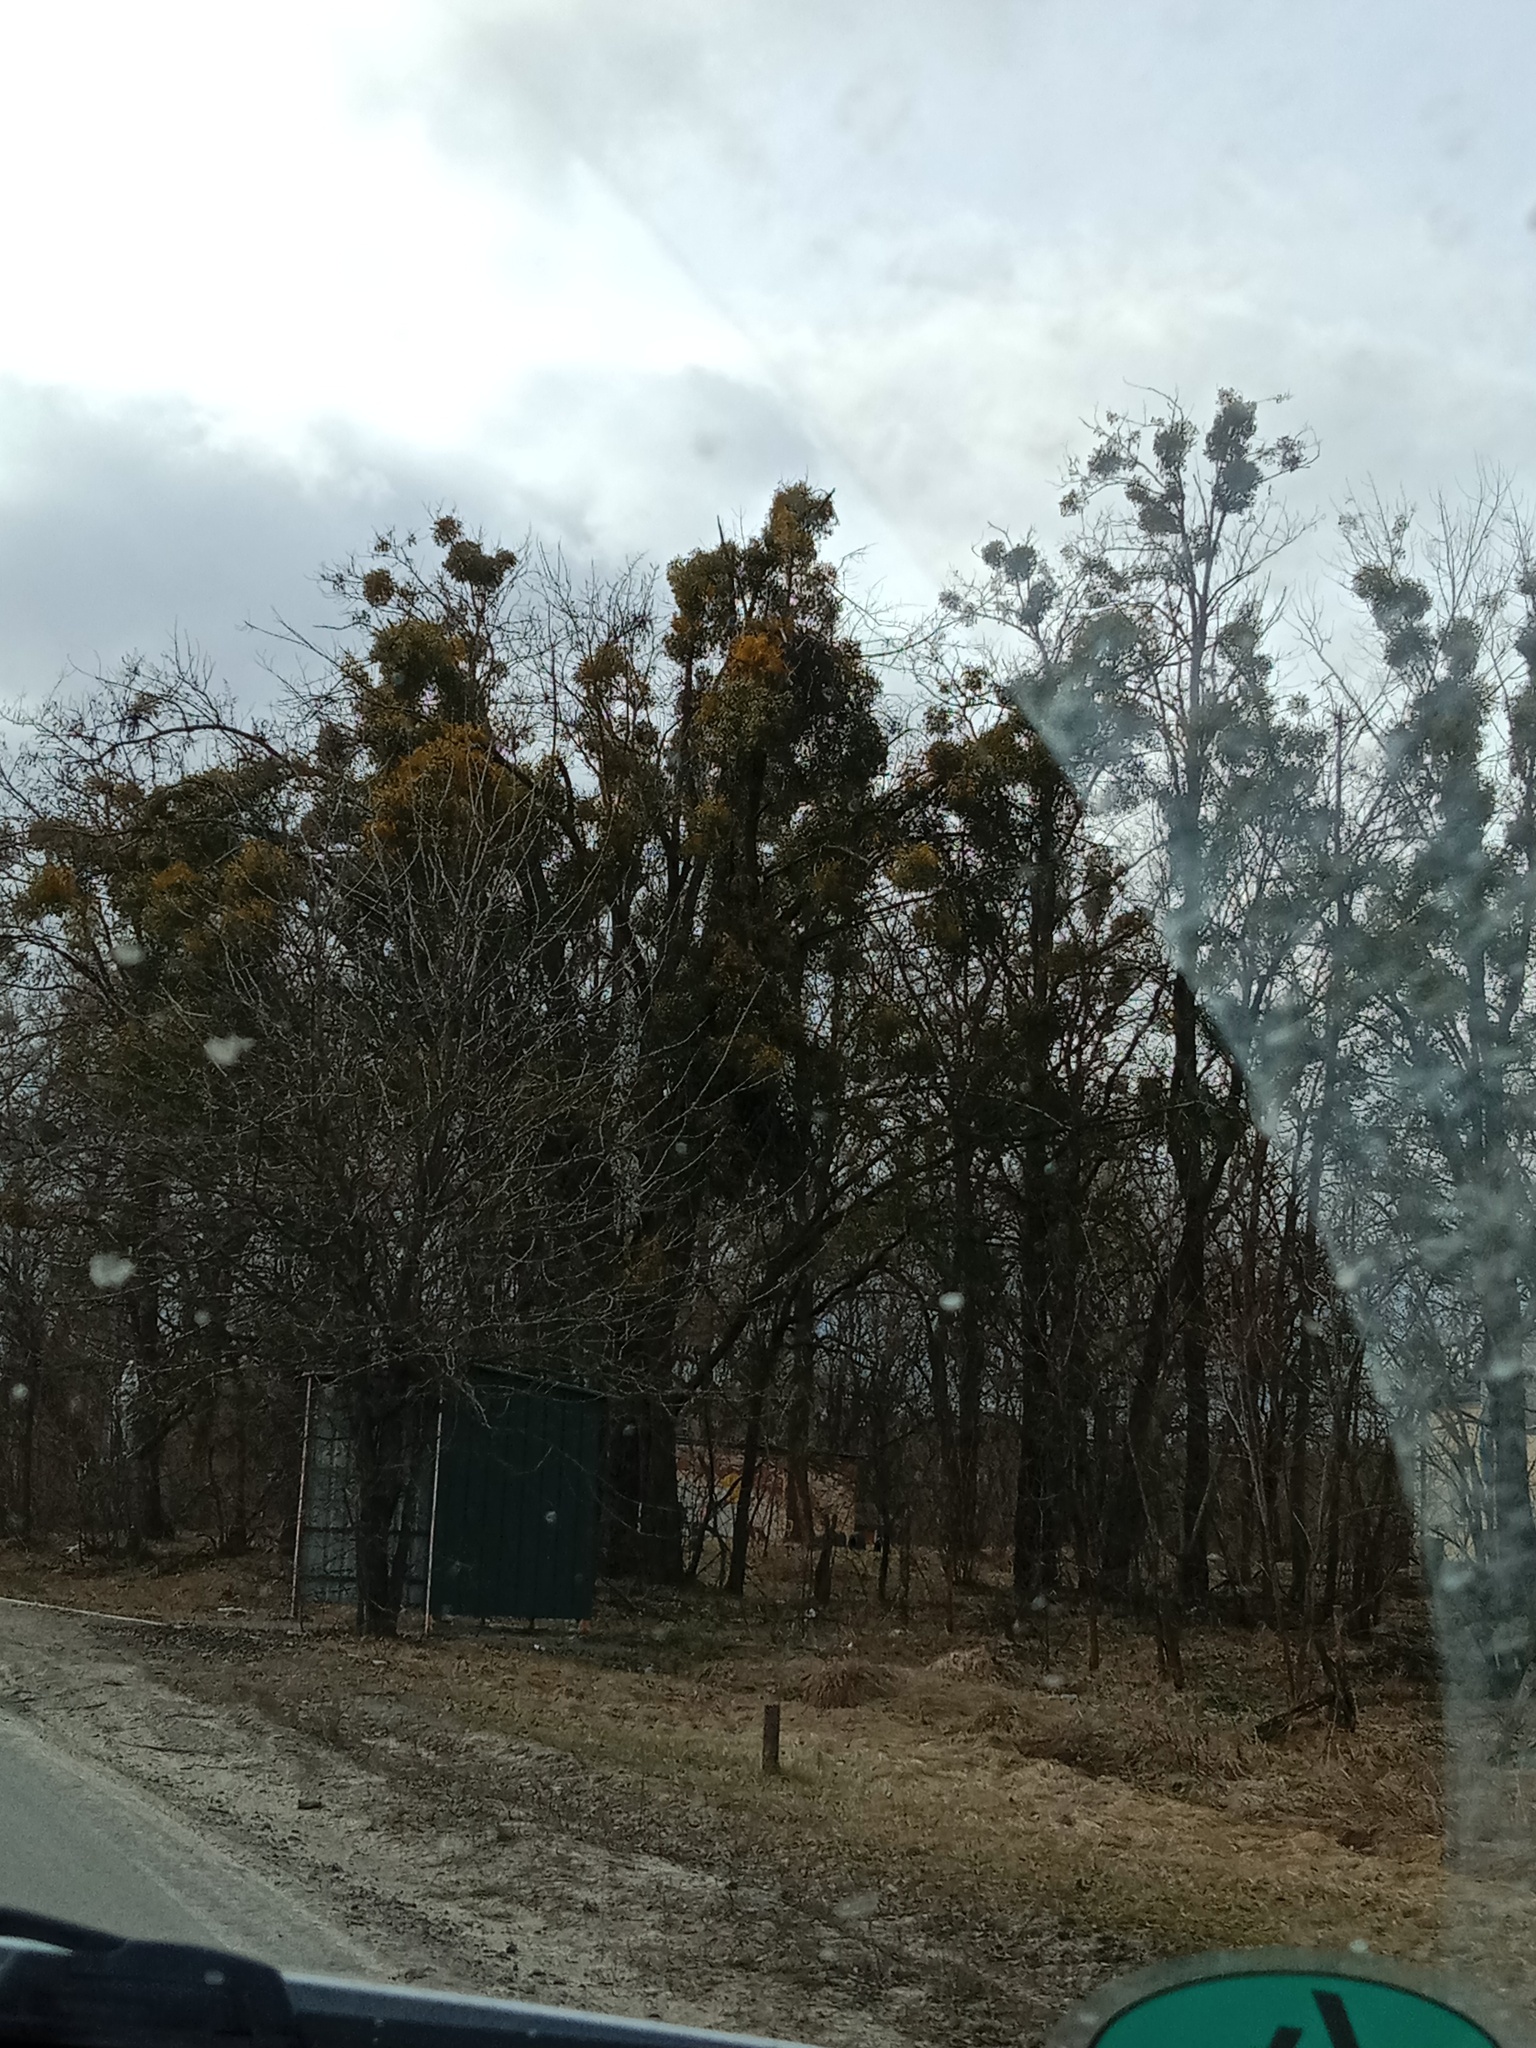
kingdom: Plantae
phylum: Tracheophyta
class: Magnoliopsida
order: Santalales
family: Viscaceae
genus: Viscum
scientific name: Viscum album
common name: Mistletoe
